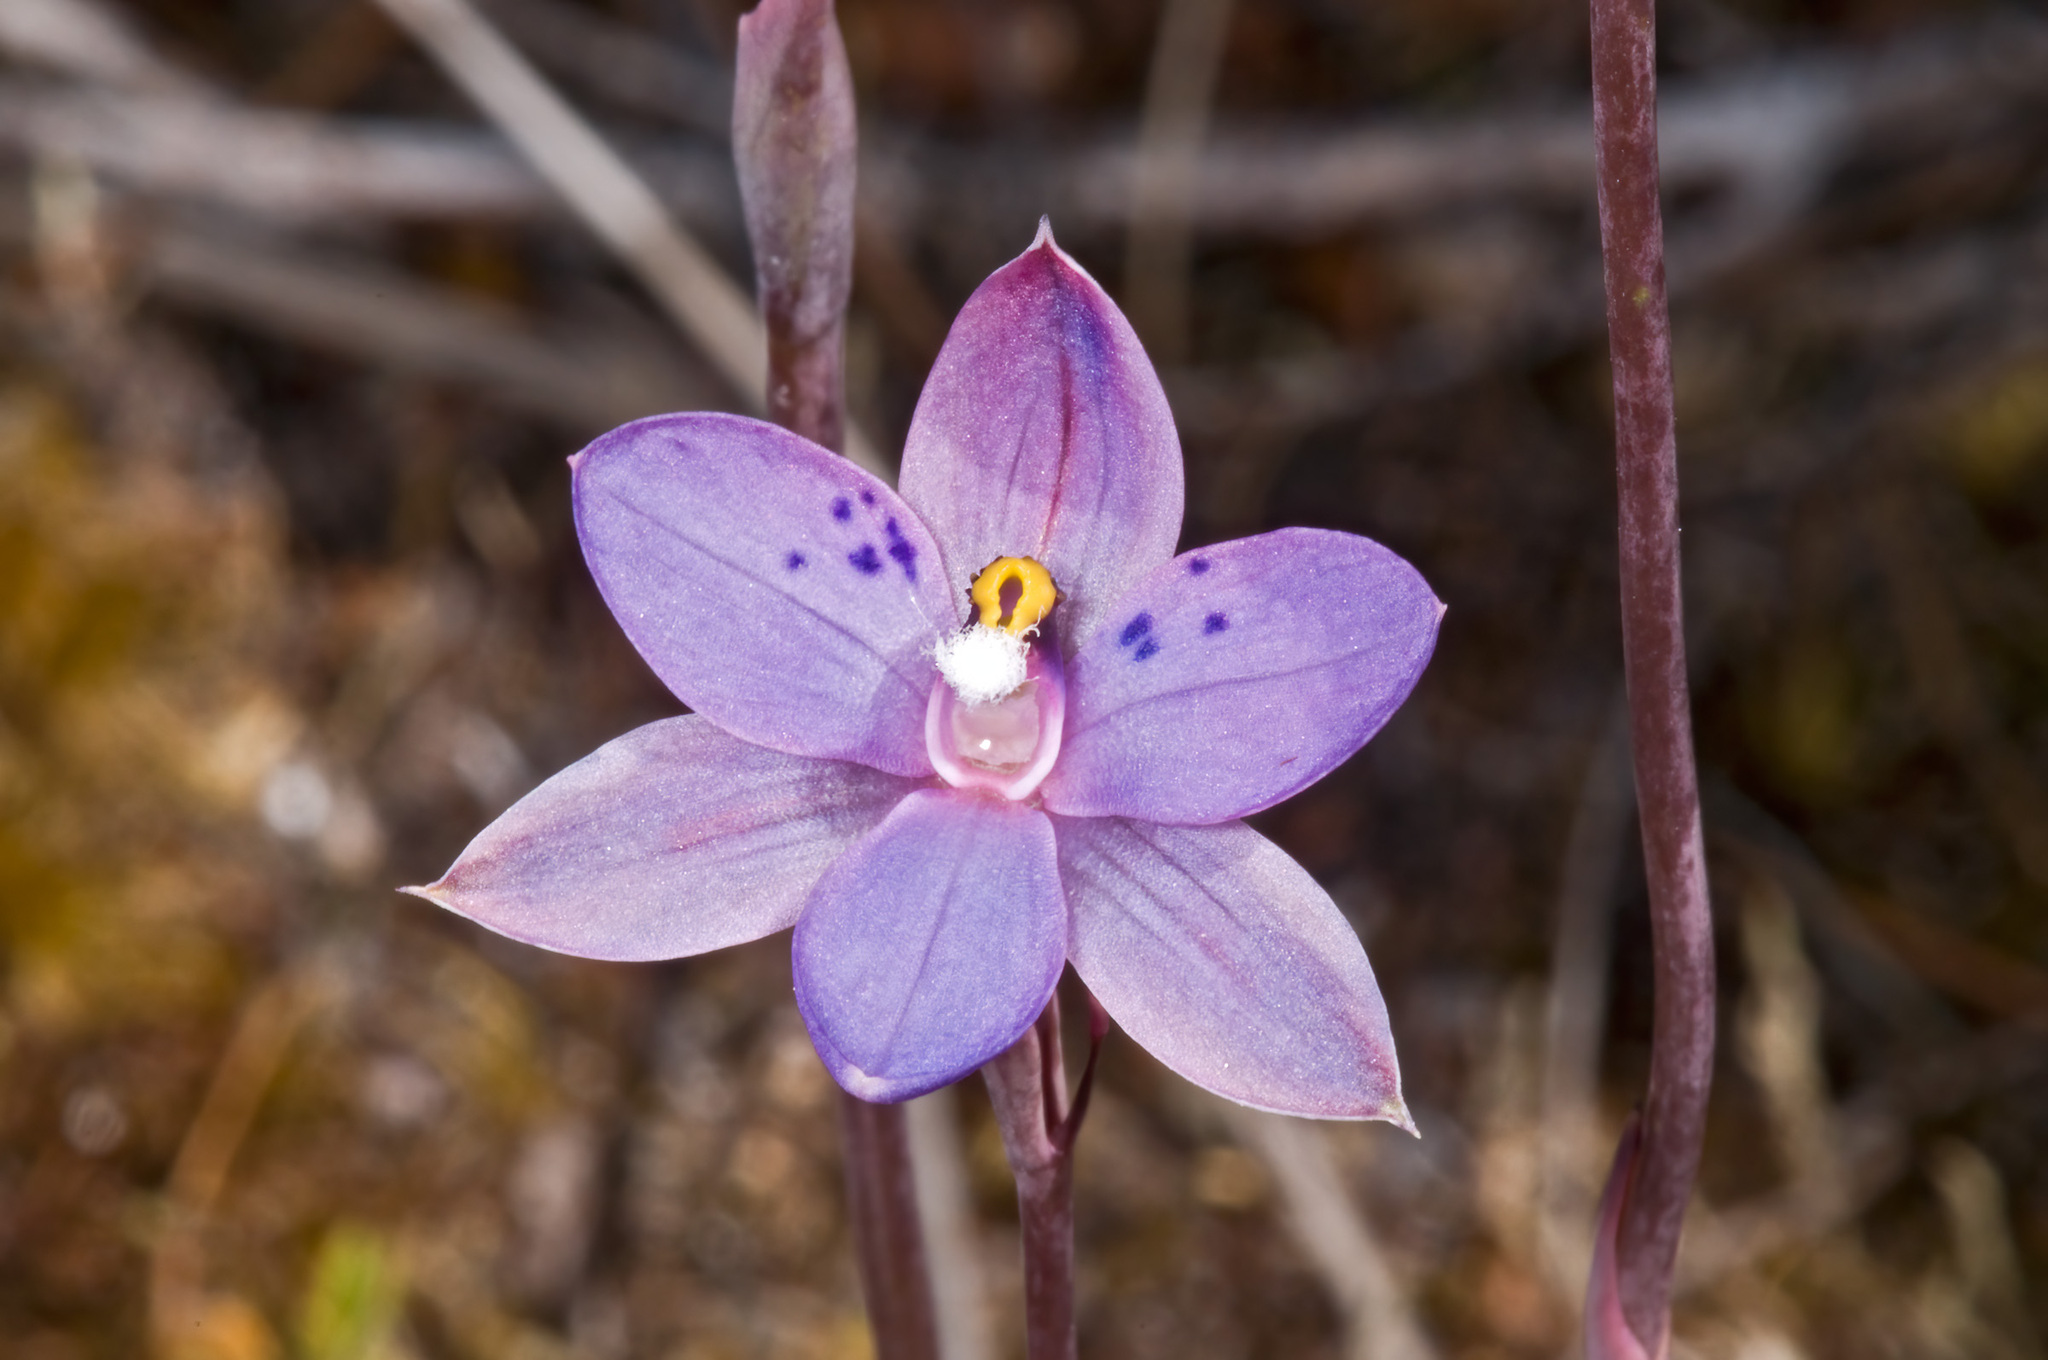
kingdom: Plantae
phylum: Tracheophyta
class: Liliopsida
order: Asparagales
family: Orchidaceae
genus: Thelymitra
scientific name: Thelymitra nervosa
